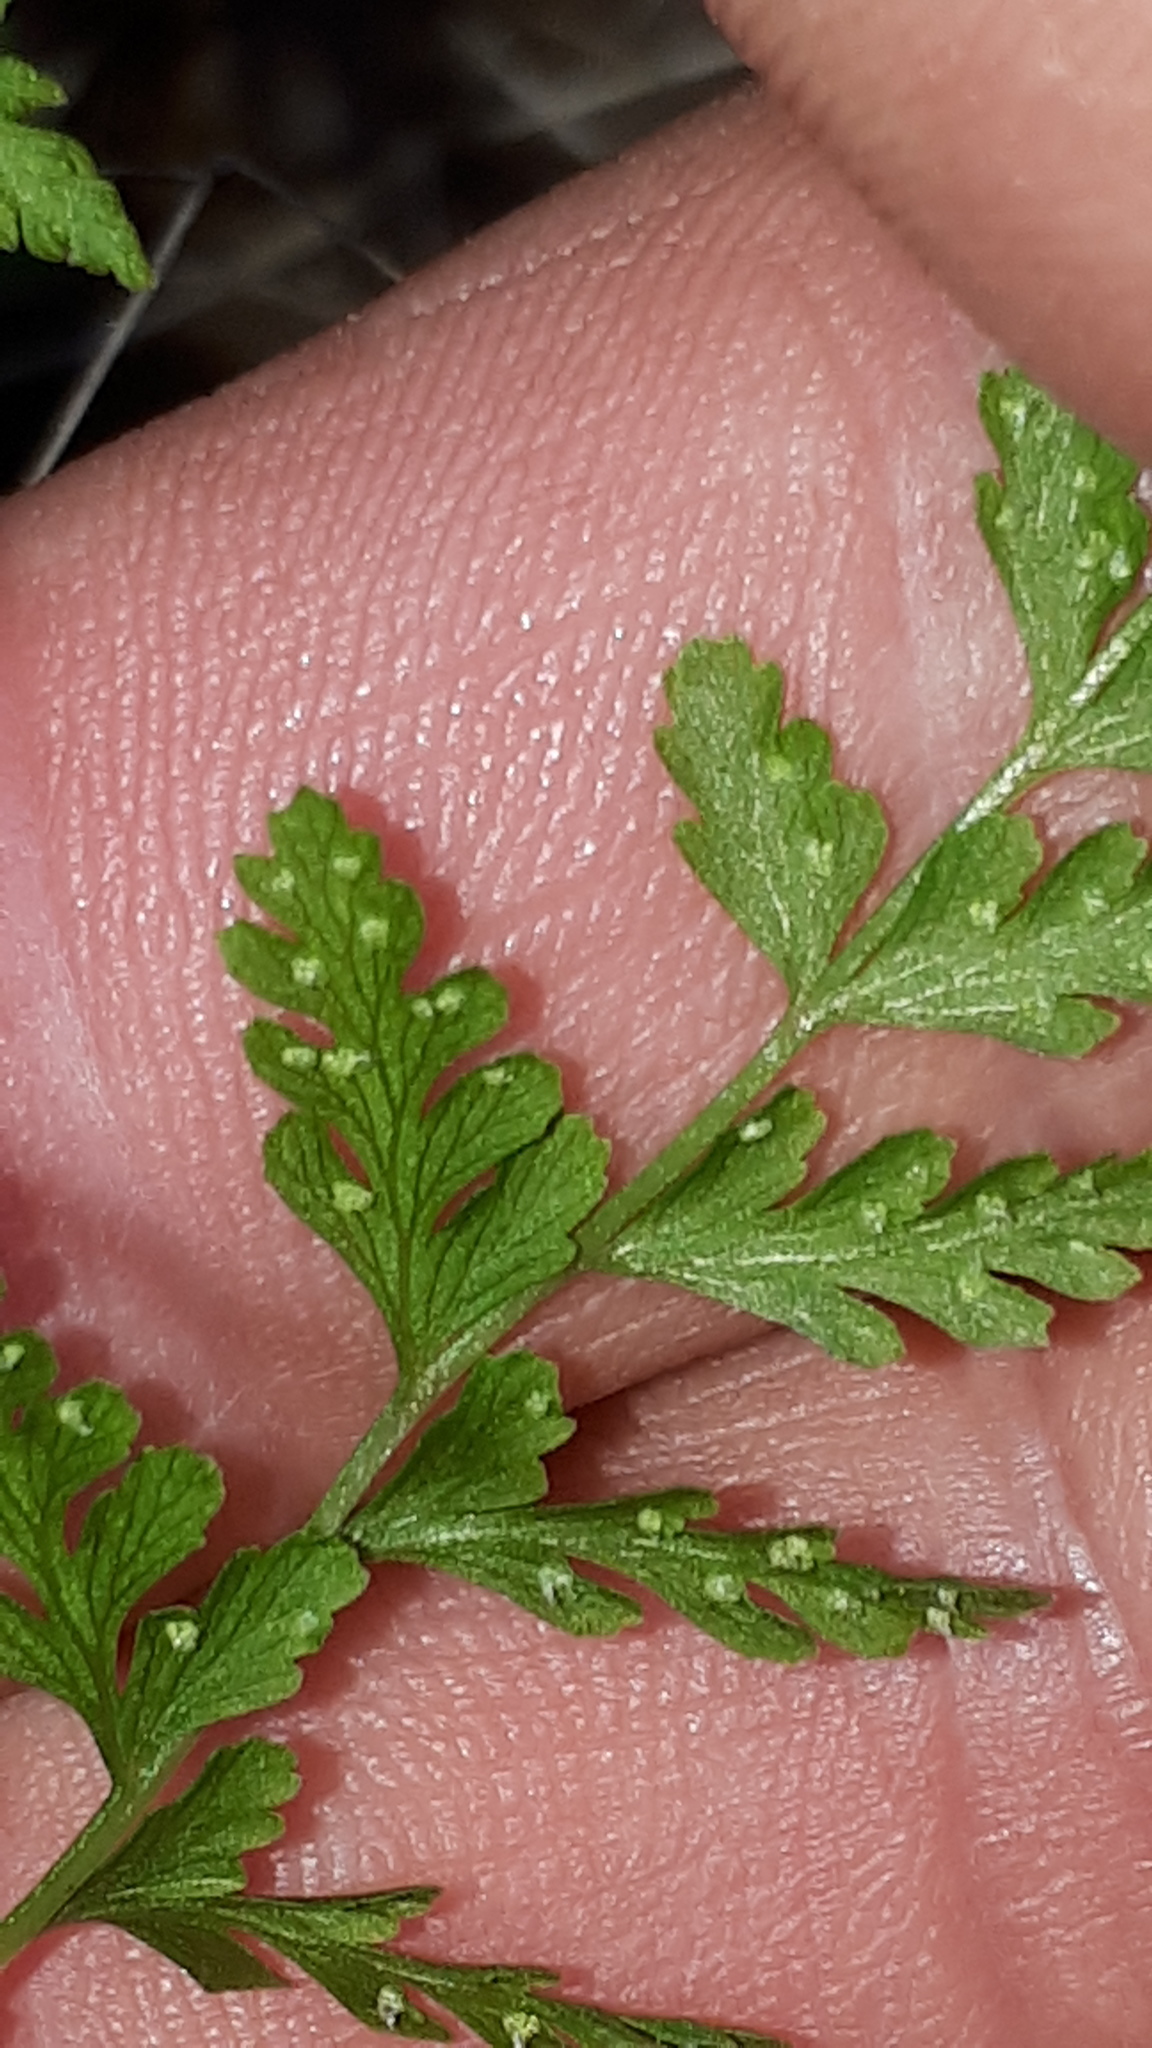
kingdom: Plantae
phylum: Tracheophyta
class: Polypodiopsida
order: Polypodiales
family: Cystopteridaceae
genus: Cystopteris
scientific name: Cystopteris fragilis
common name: Brittle bladder fern
